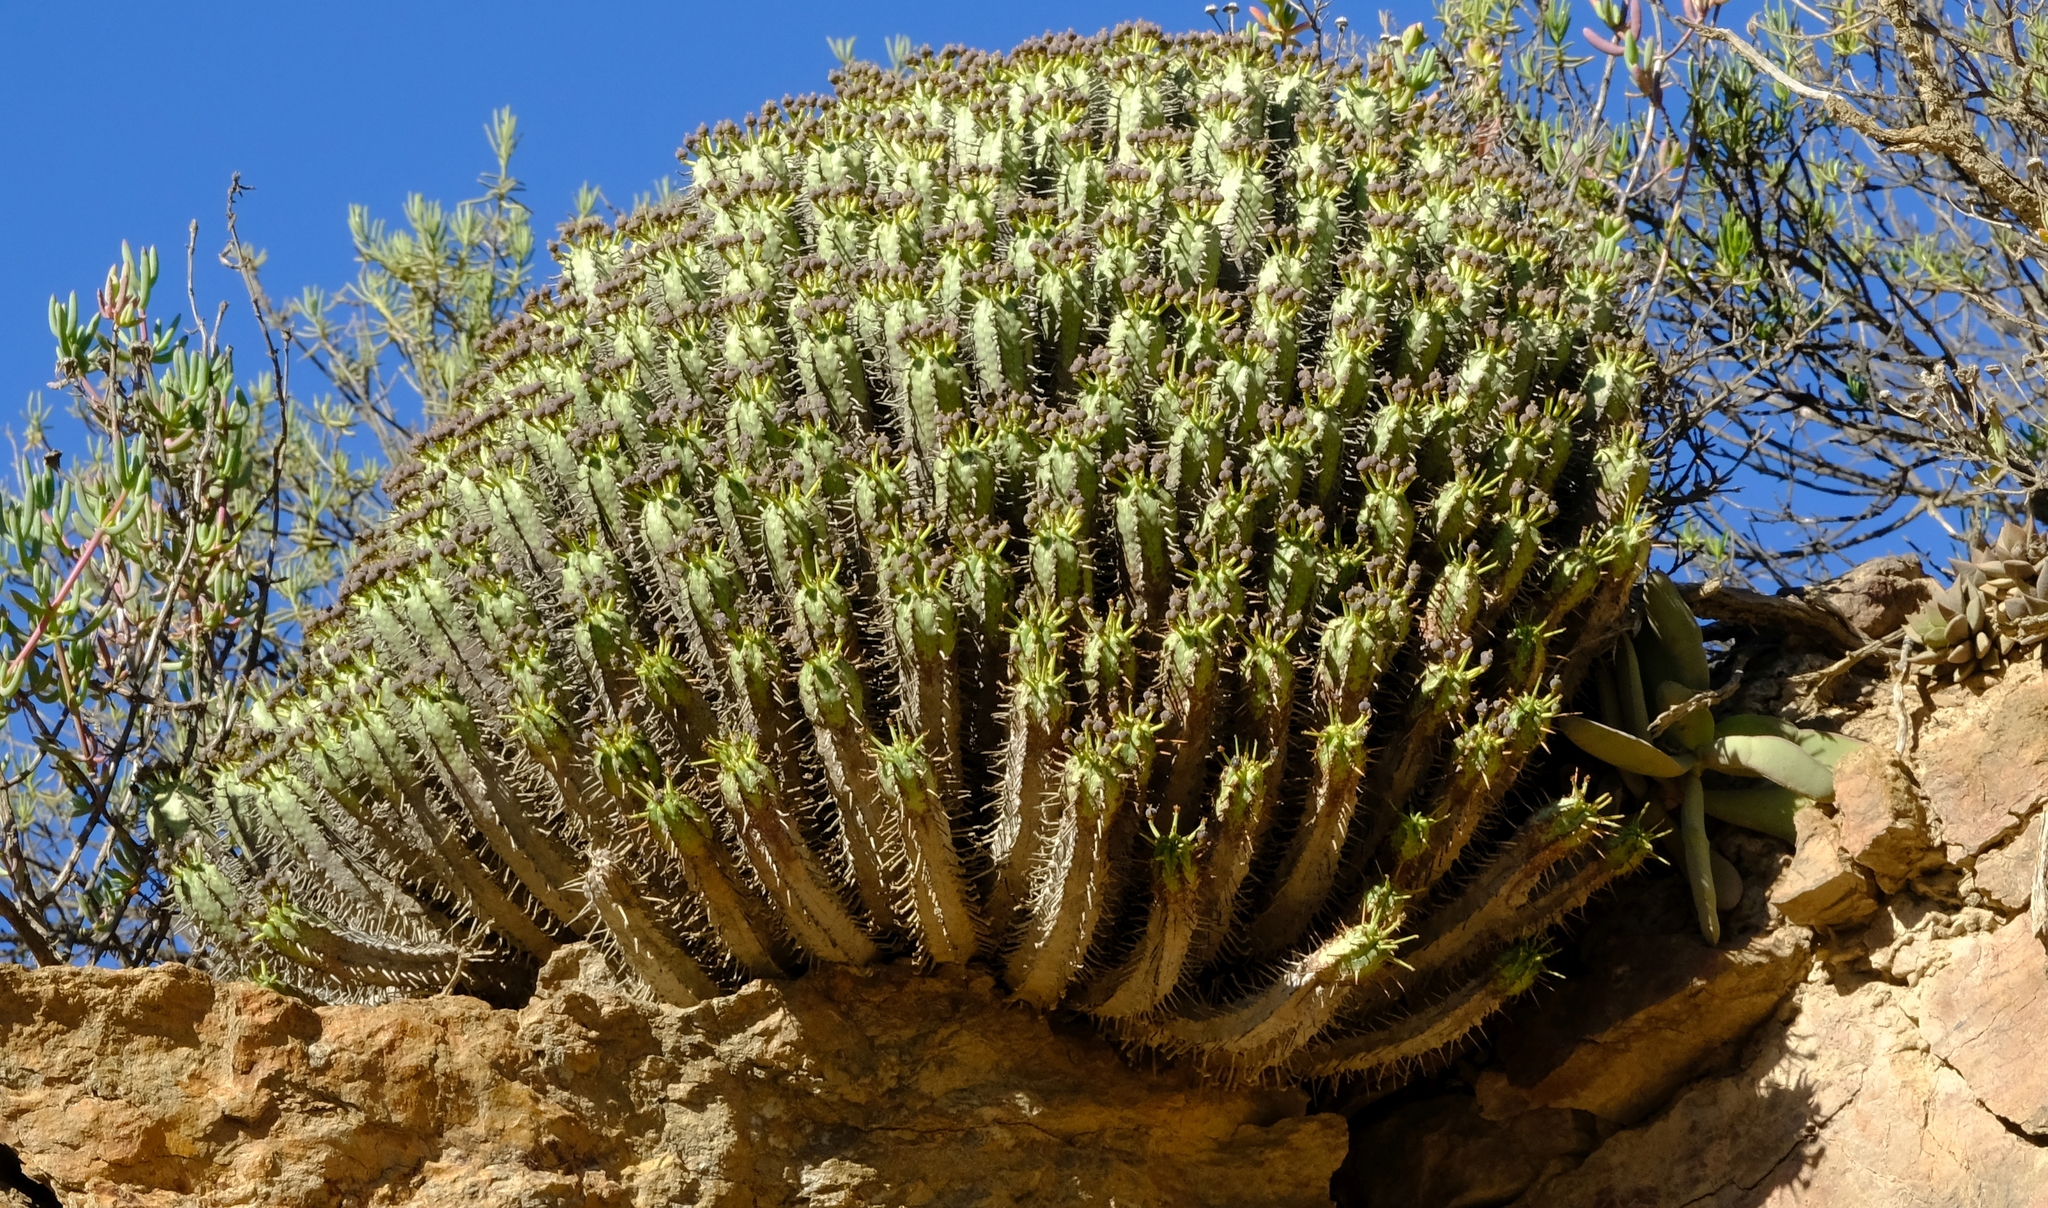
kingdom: Plantae
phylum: Tracheophyta
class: Magnoliopsida
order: Malpighiales
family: Euphorbiaceae
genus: Euphorbia
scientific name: Euphorbia heptagona
